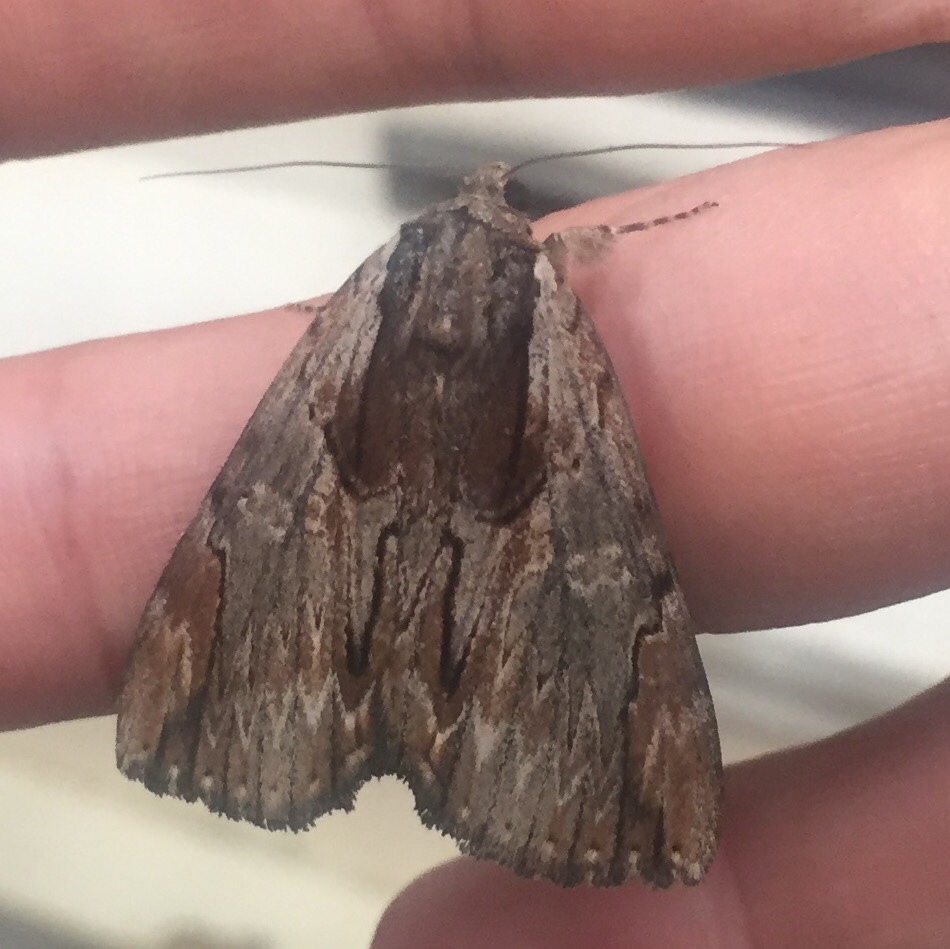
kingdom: Animalia
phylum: Arthropoda
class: Insecta
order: Lepidoptera
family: Erebidae
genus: Catocala
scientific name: Catocala ultronia
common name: Ultronia underwing
